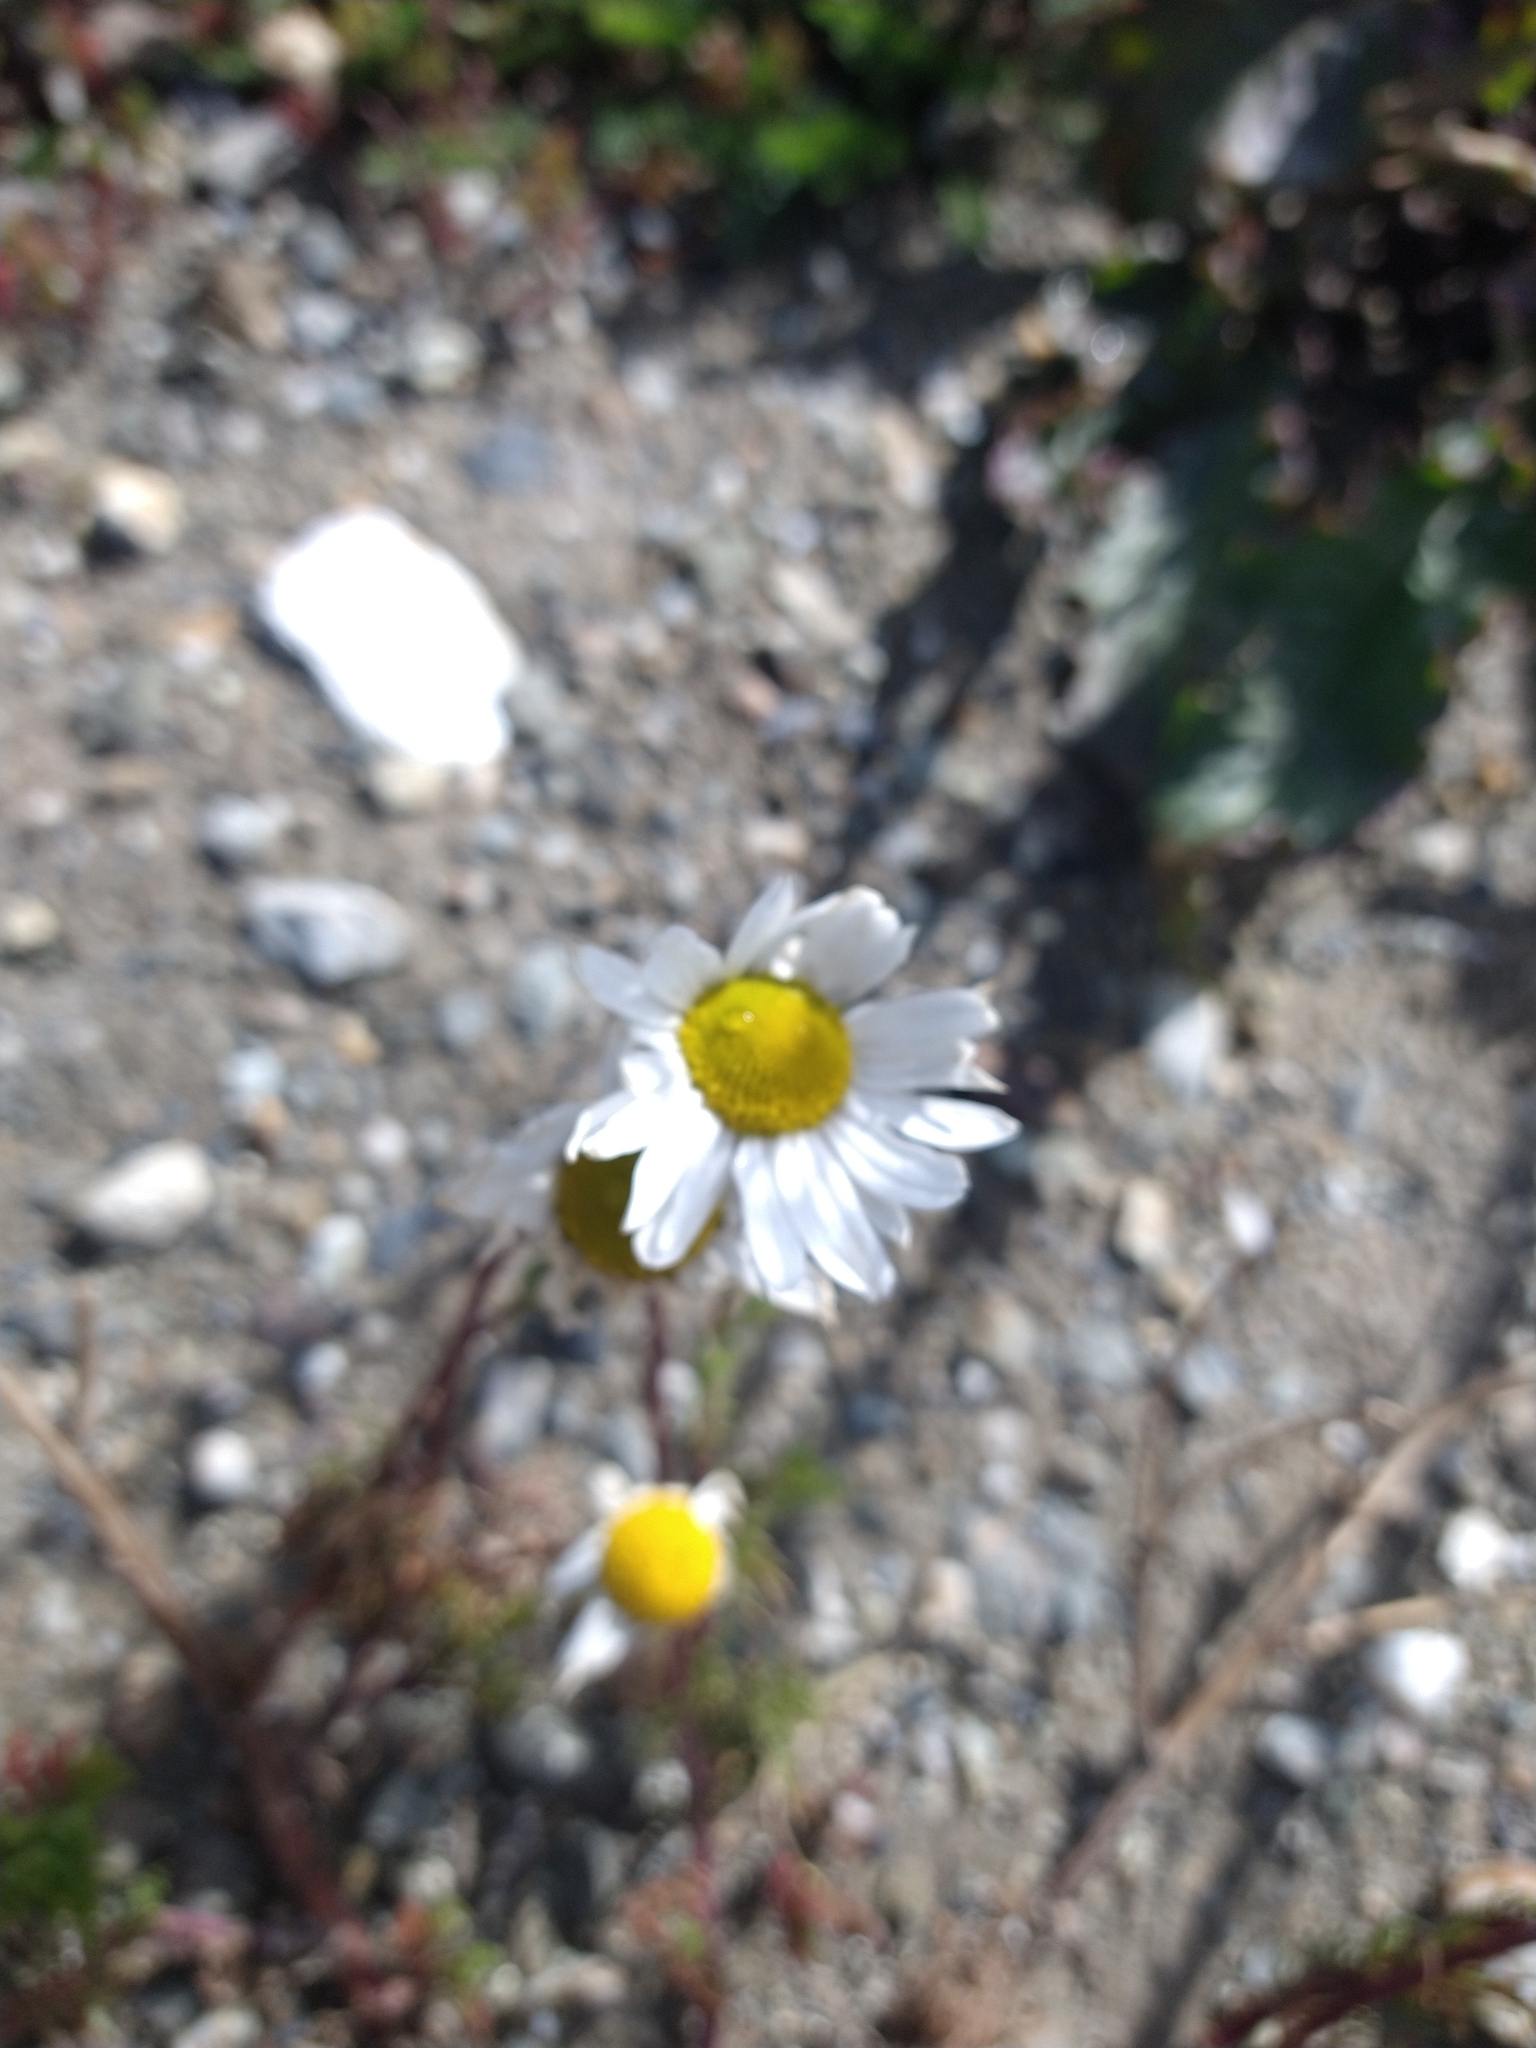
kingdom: Plantae
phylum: Tracheophyta
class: Magnoliopsida
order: Asterales
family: Asteraceae
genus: Tripleurospermum
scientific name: Tripleurospermum inodorum
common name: Scentless mayweed
